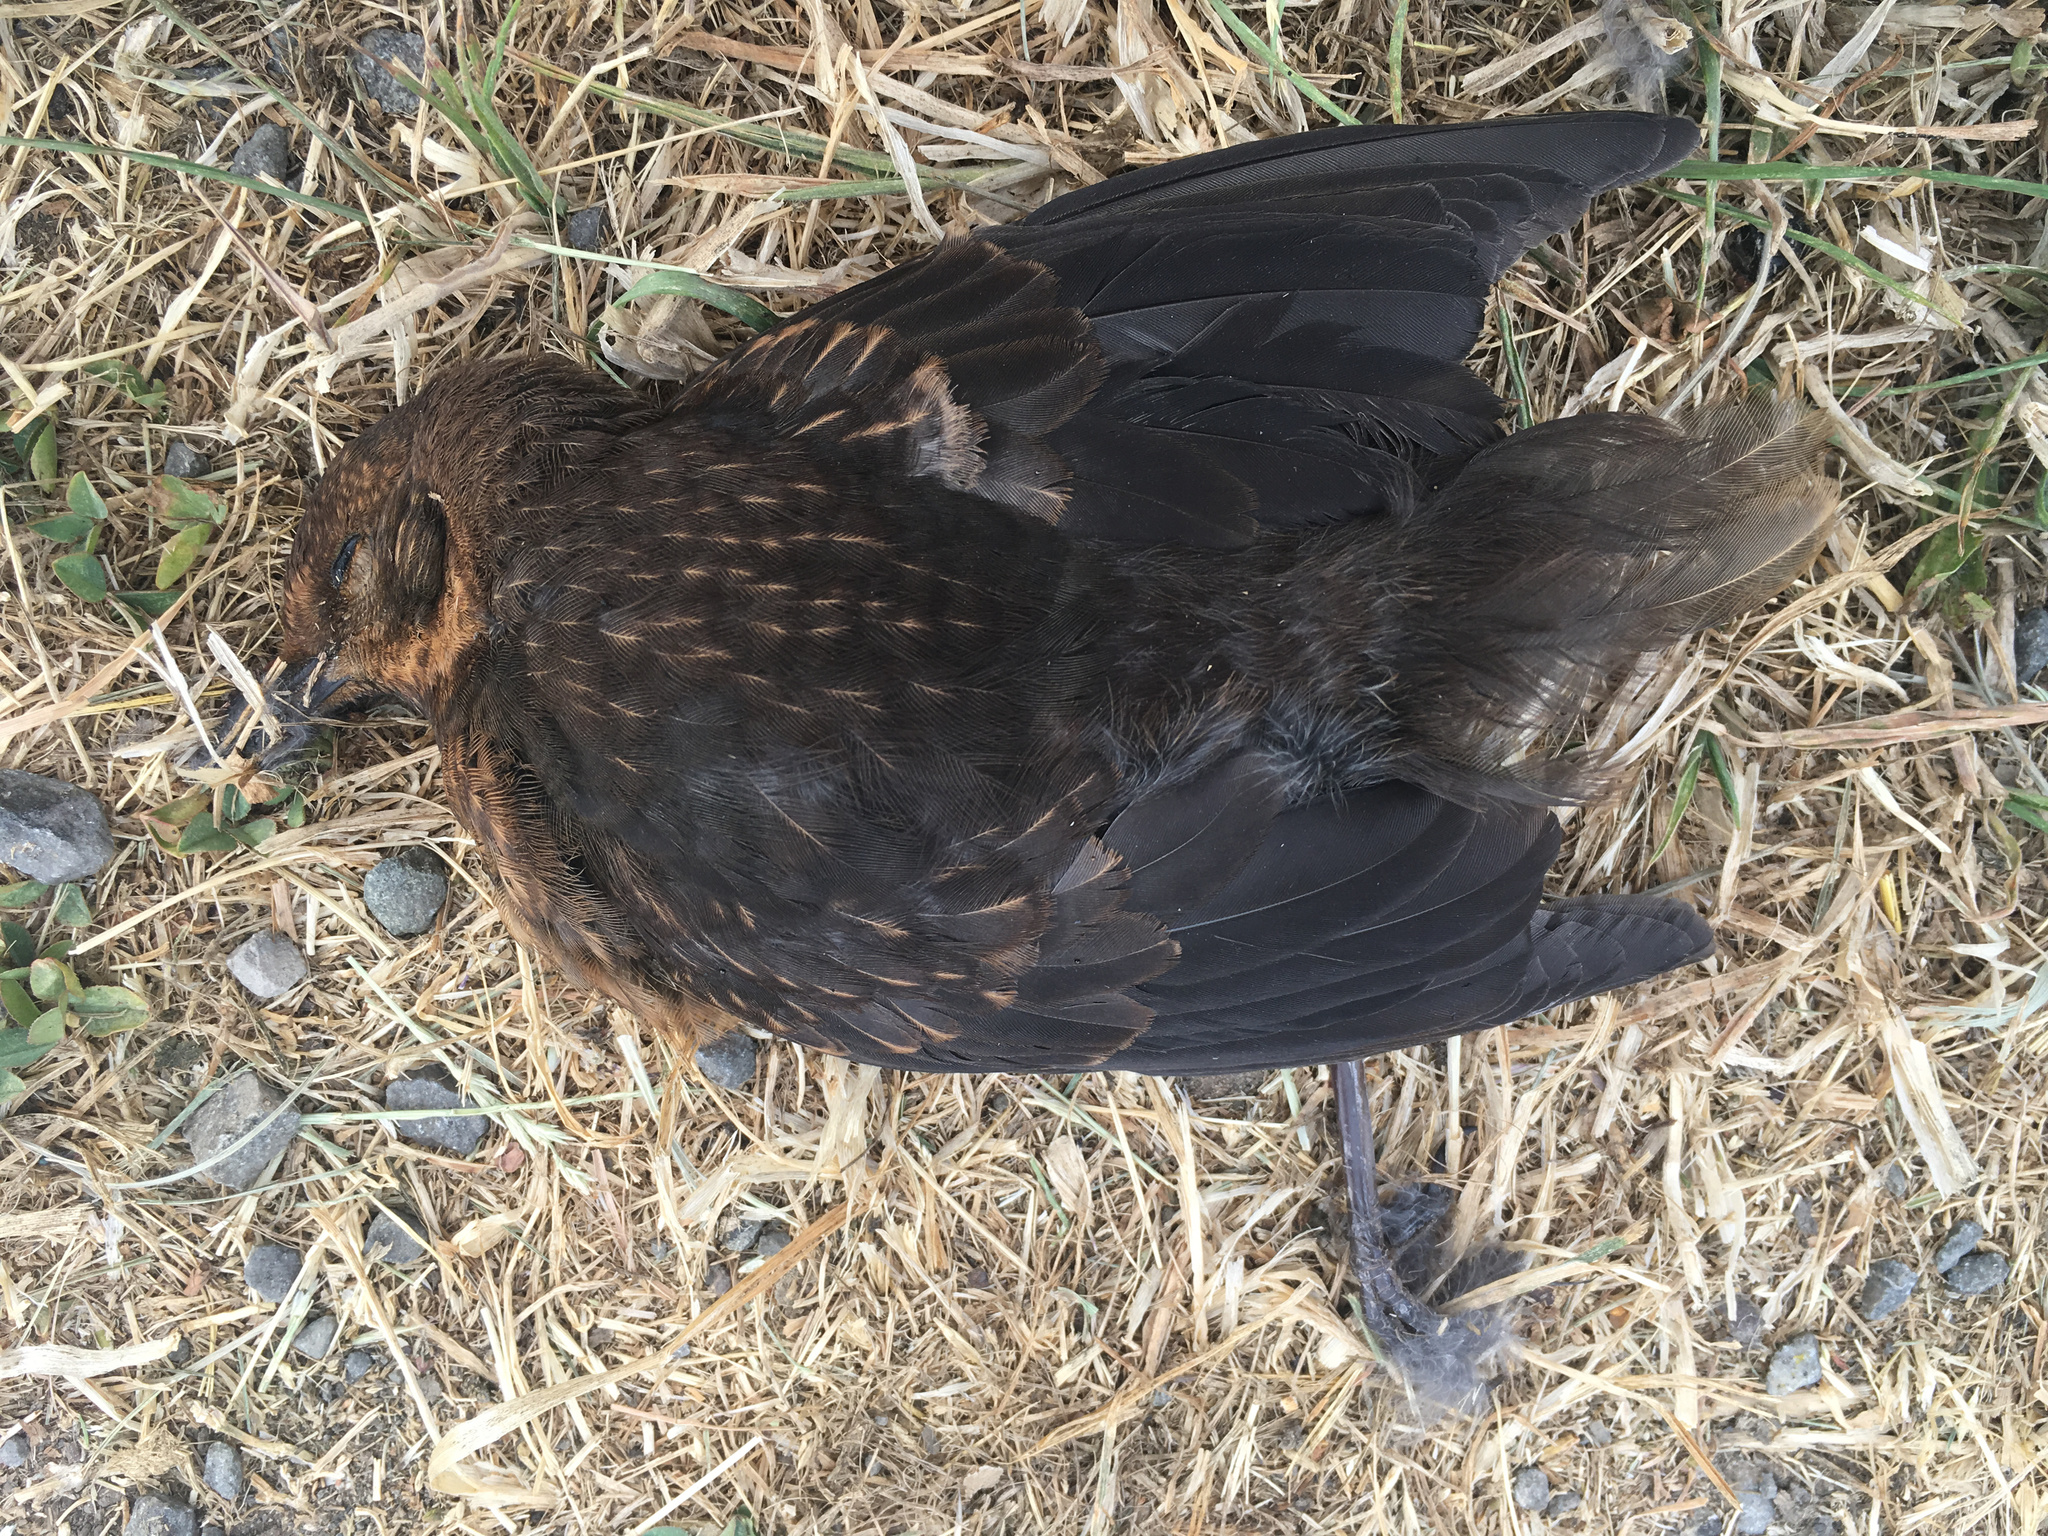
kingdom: Animalia
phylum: Chordata
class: Aves
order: Passeriformes
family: Turdidae
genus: Turdus
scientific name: Turdus merula
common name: Common blackbird
